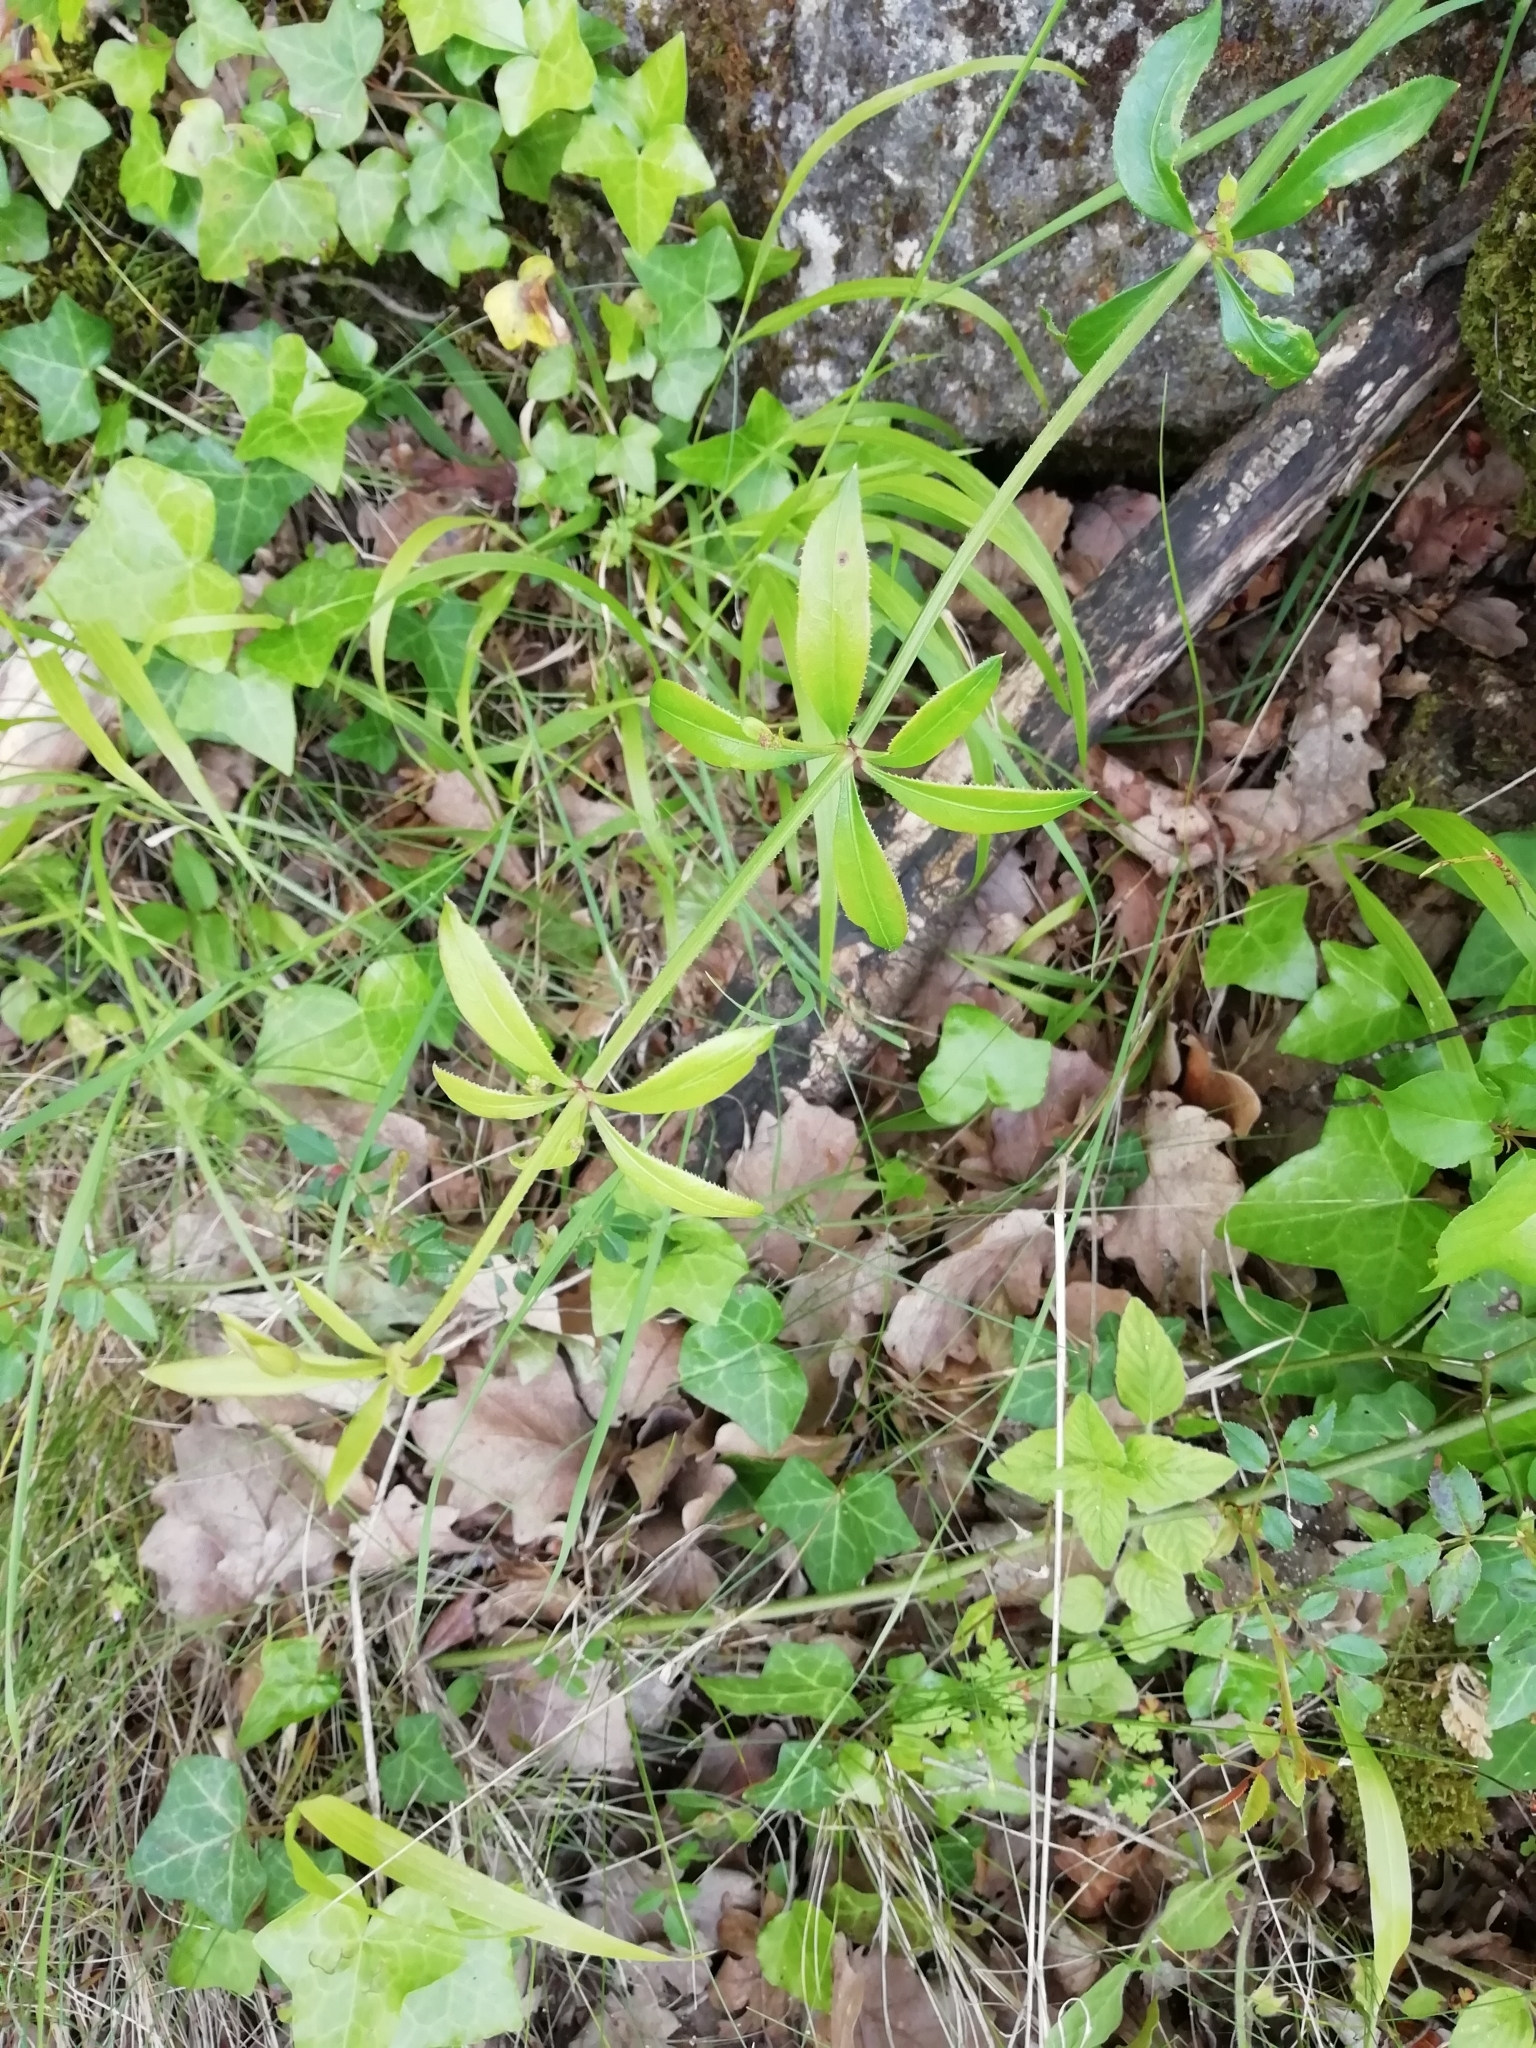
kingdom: Plantae
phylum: Tracheophyta
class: Magnoliopsida
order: Gentianales
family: Rubiaceae
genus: Rubia
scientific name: Rubia peregrina
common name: Wild madder
